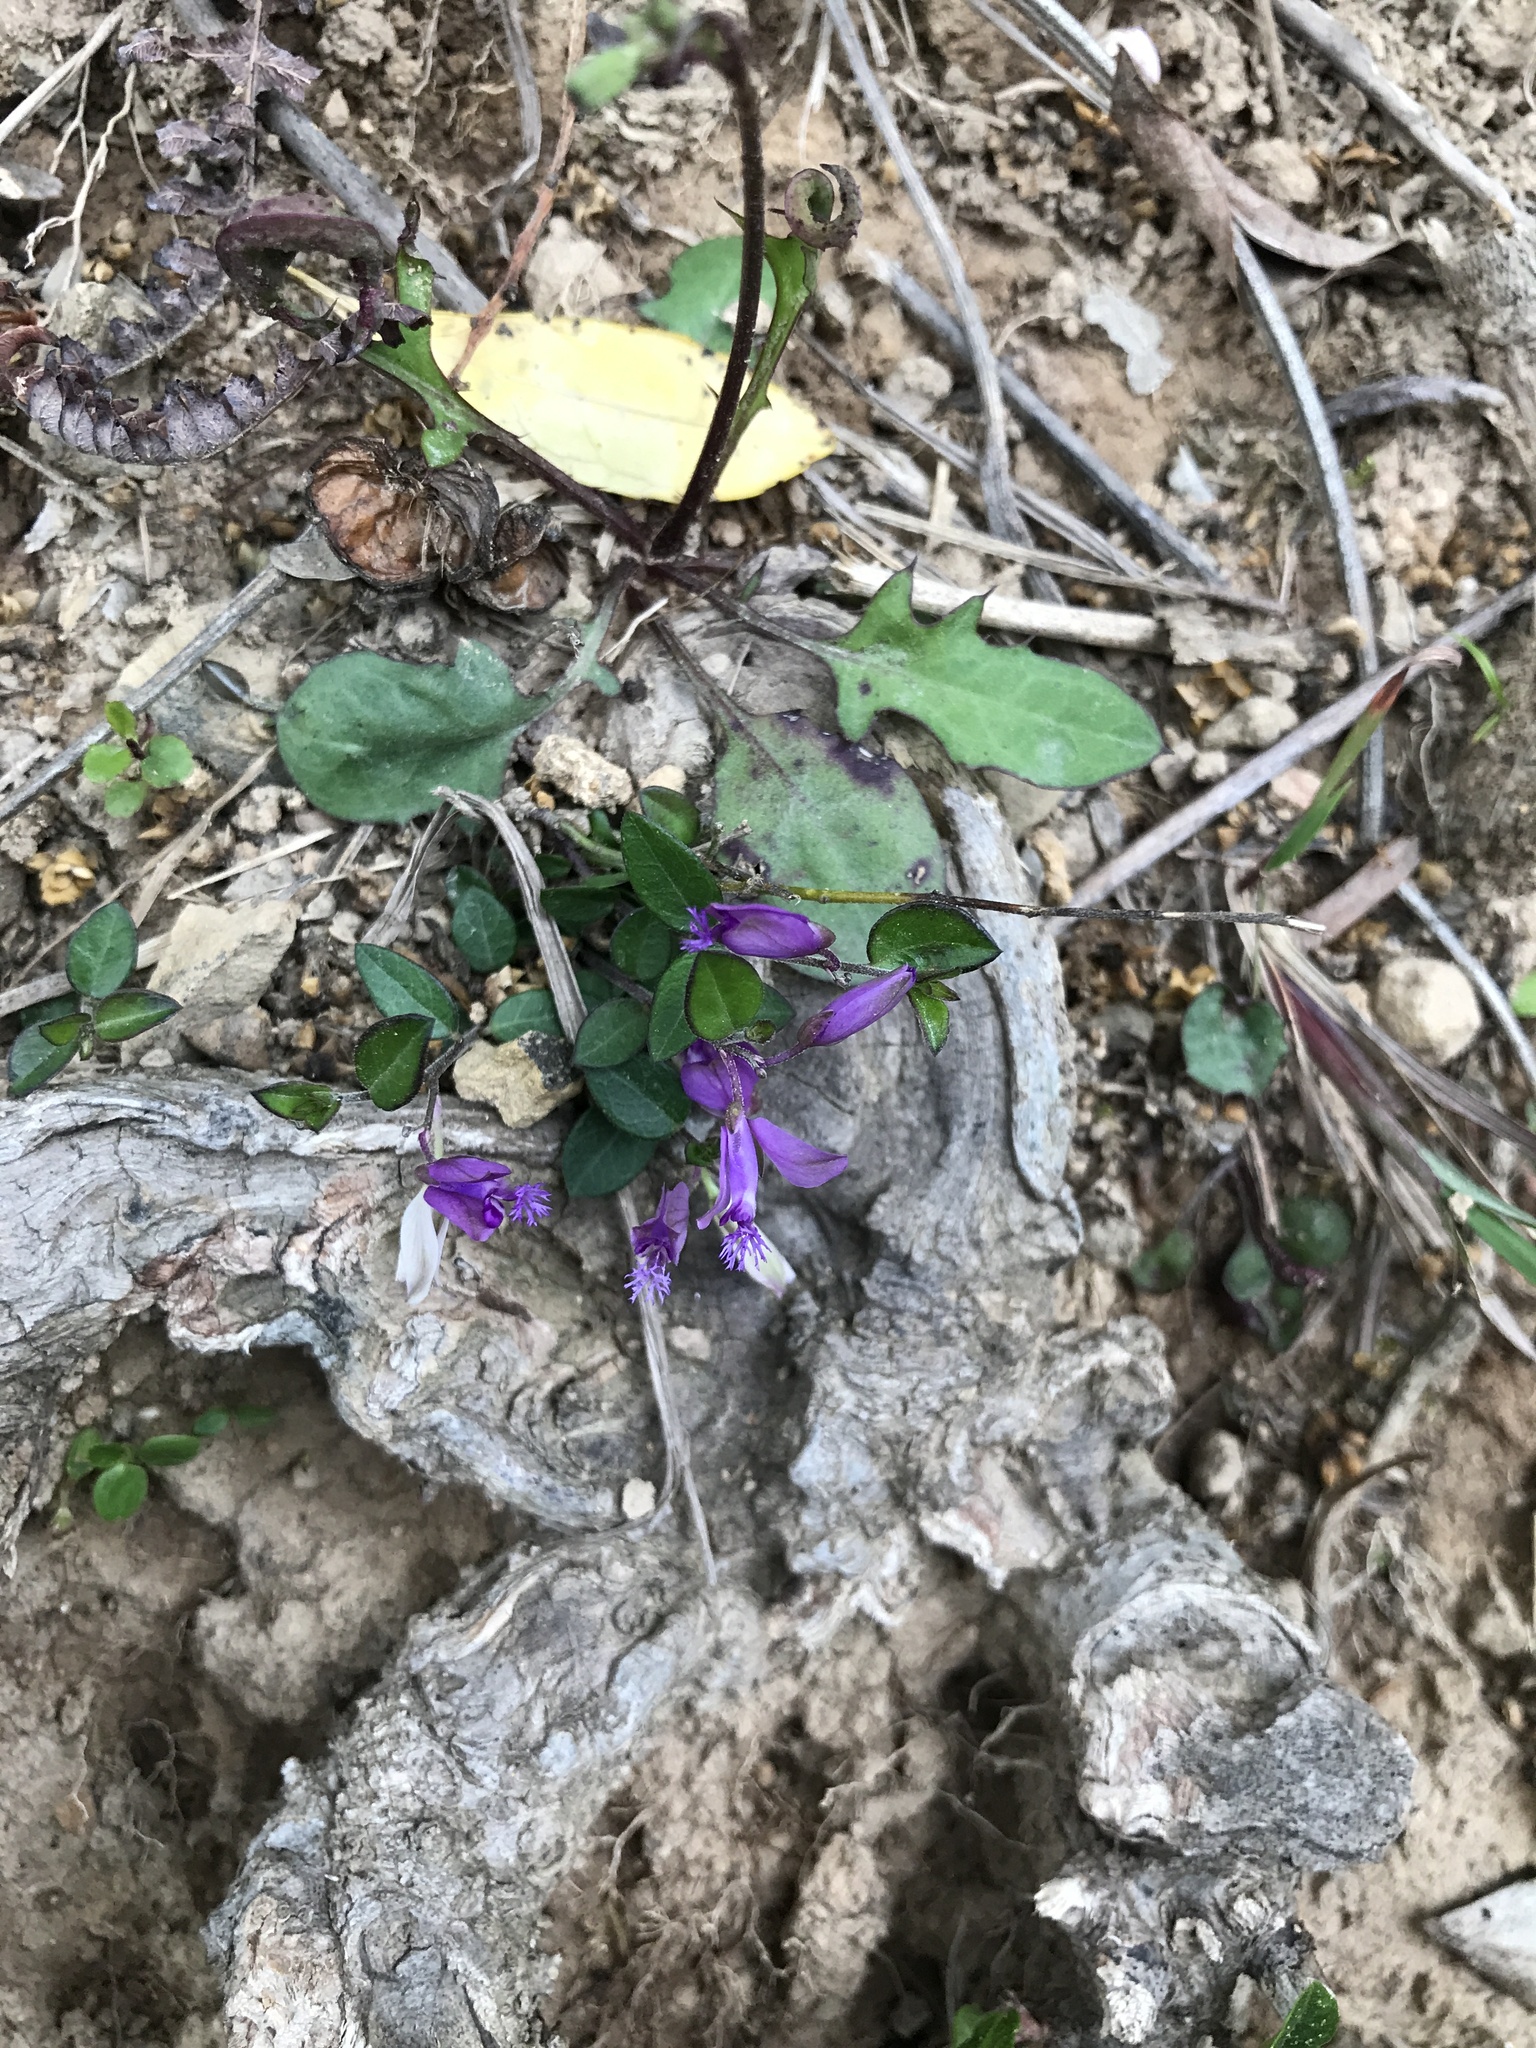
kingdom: Plantae
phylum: Tracheophyta
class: Magnoliopsida
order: Fabales
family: Polygalaceae
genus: Polygala
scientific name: Polygala japonica
